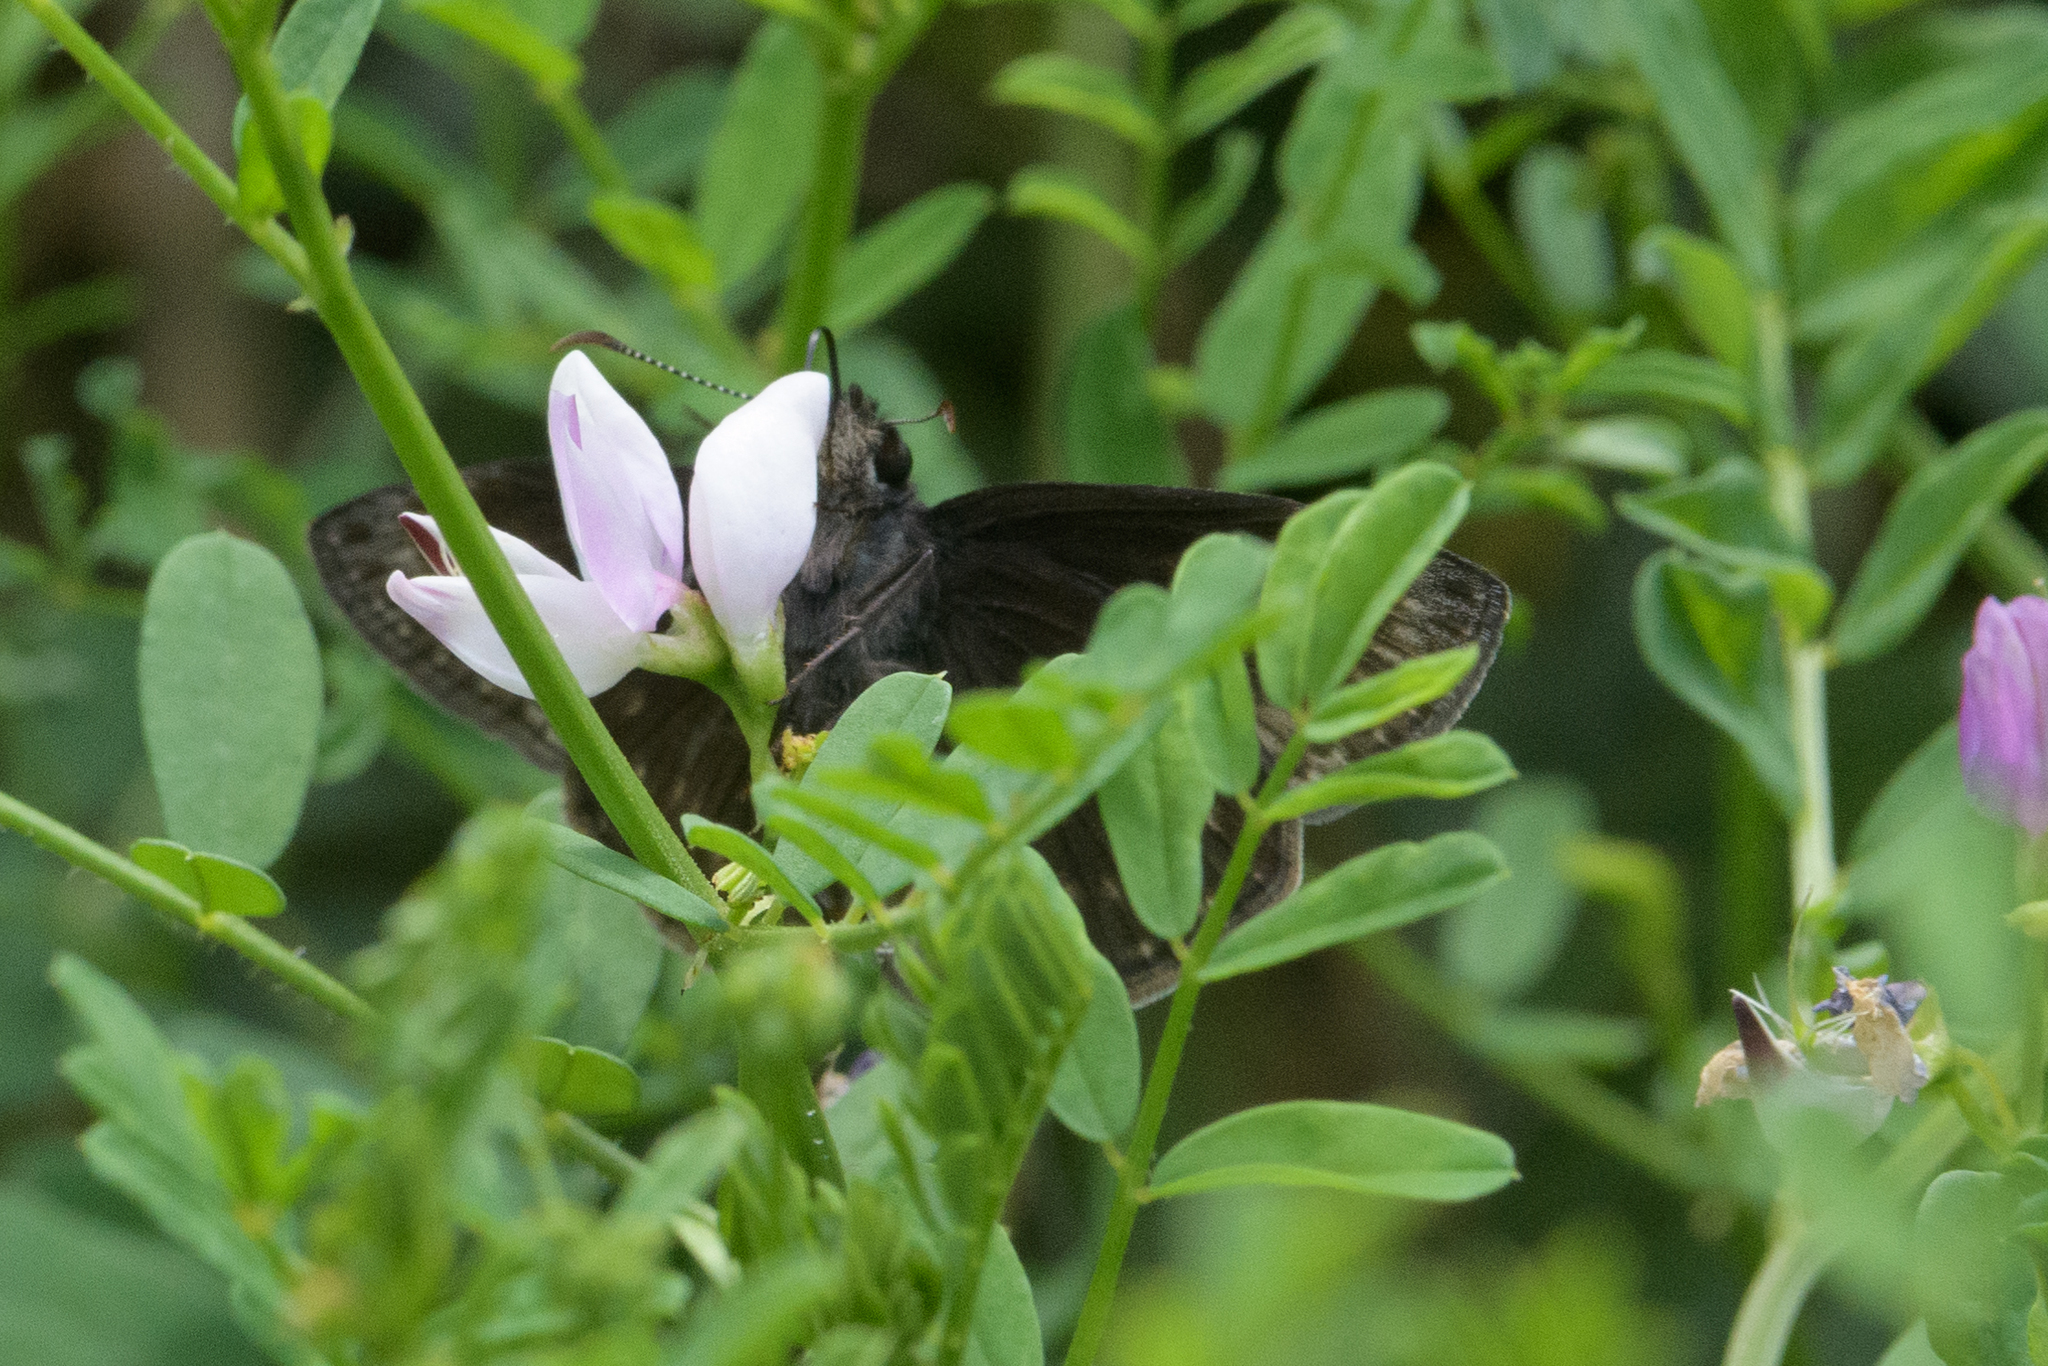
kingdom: Animalia
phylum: Arthropoda
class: Insecta
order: Lepidoptera
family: Hesperiidae
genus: Erynnis
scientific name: Erynnis baptisiae
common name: Wild indigo duskywing
